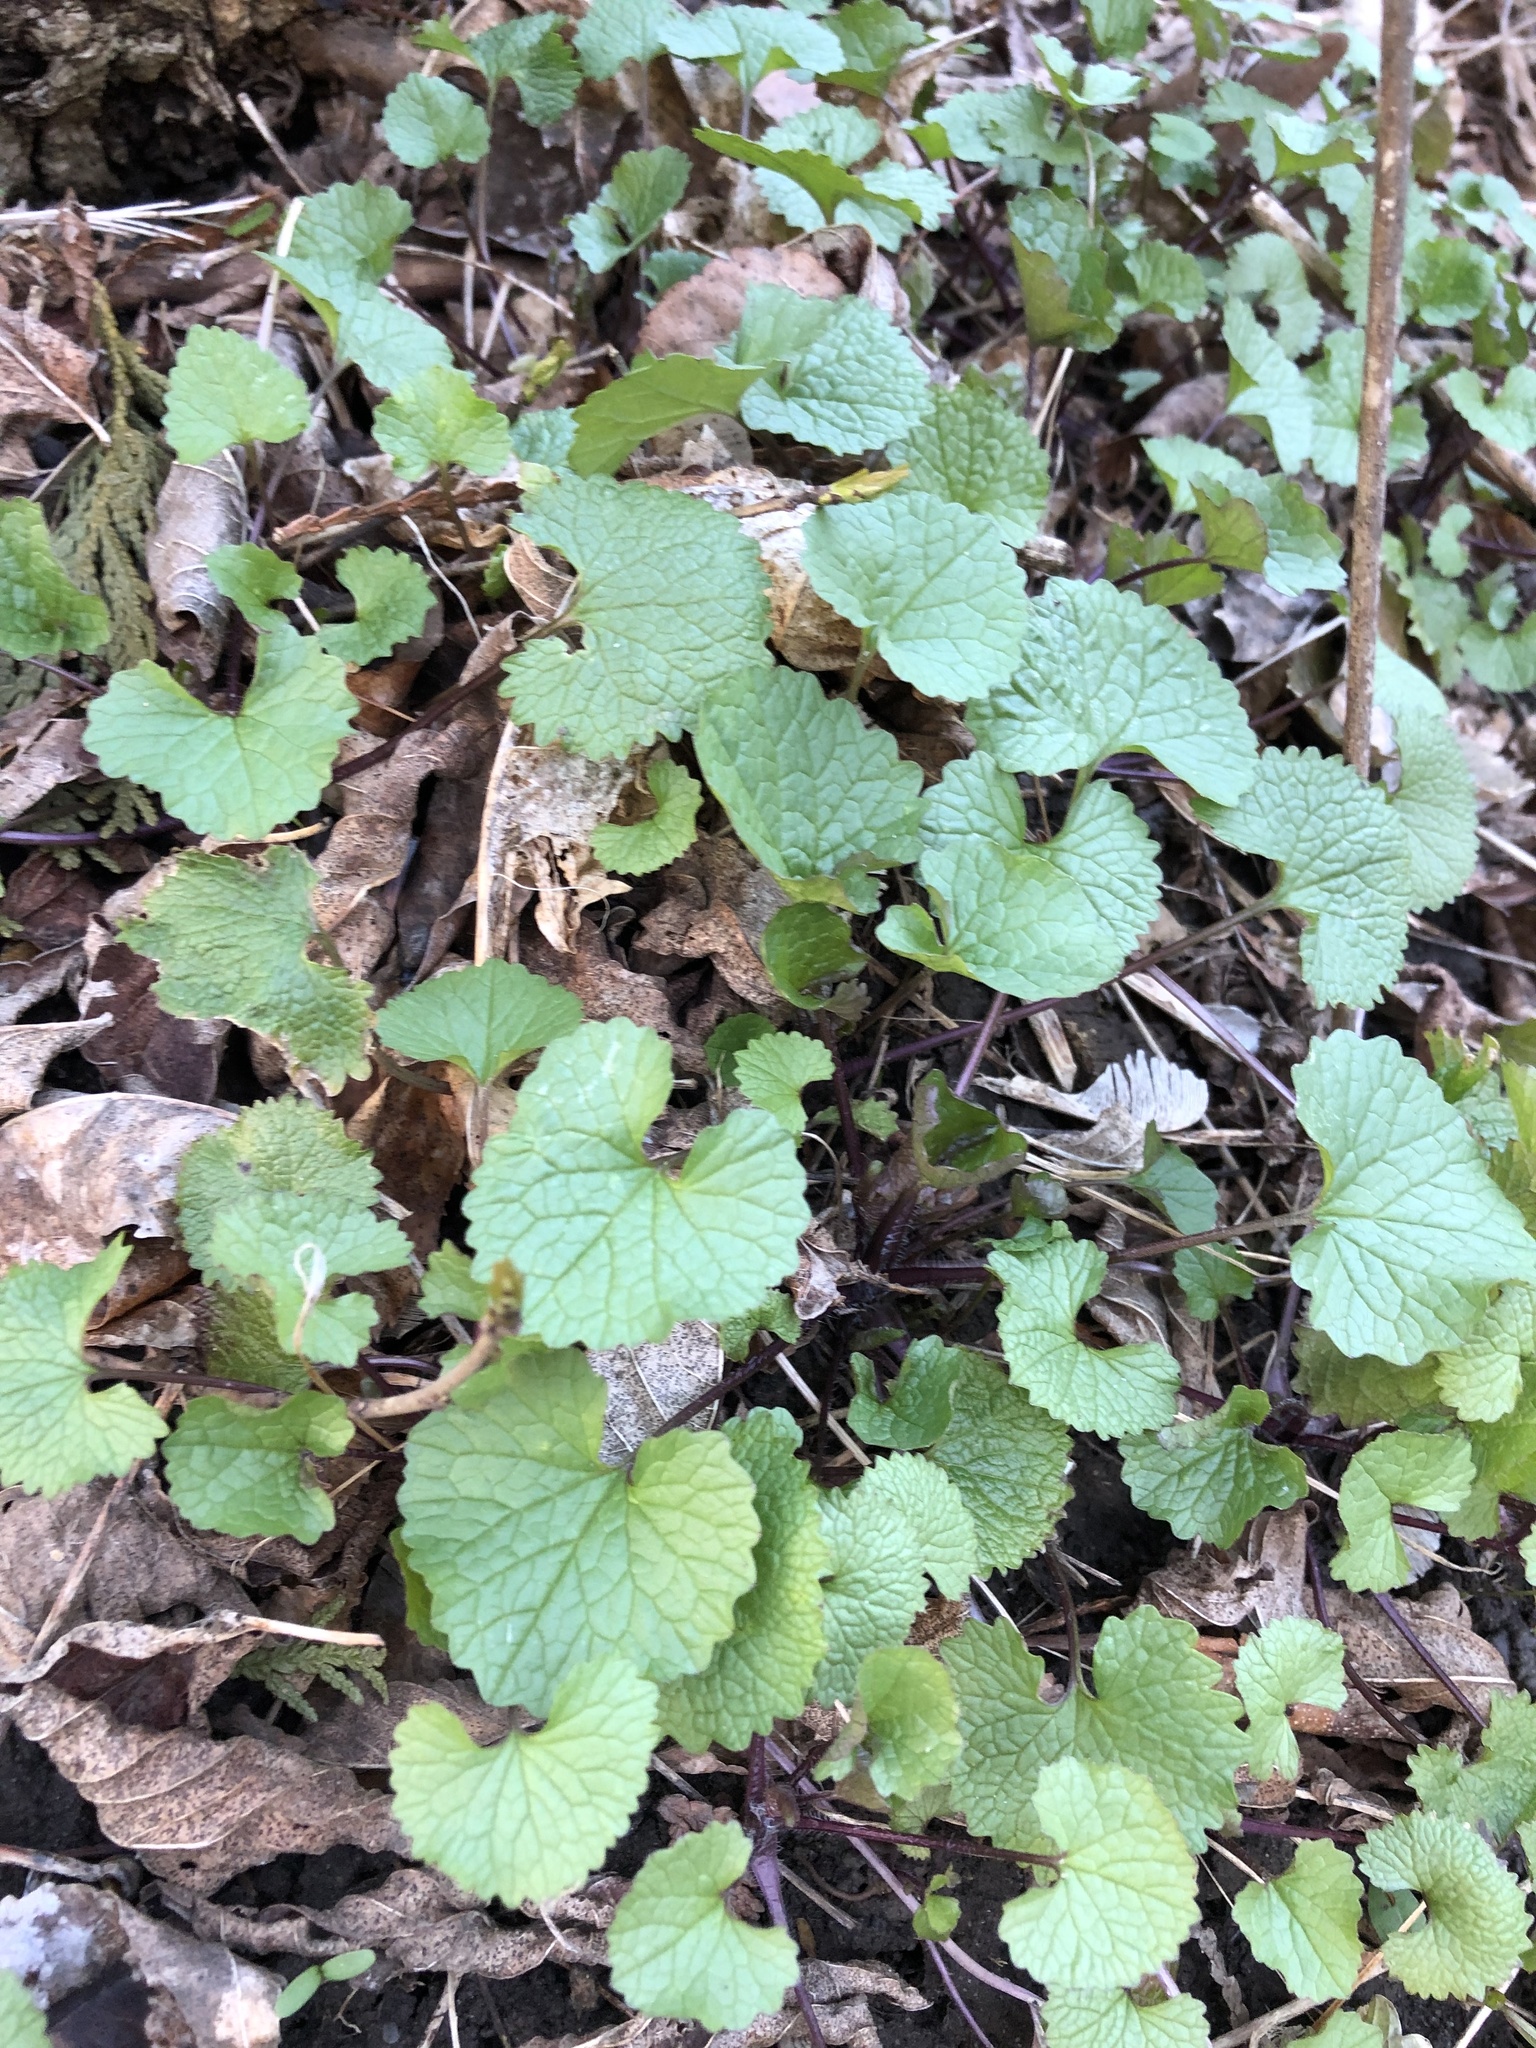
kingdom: Plantae
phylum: Tracheophyta
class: Magnoliopsida
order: Brassicales
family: Brassicaceae
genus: Alliaria
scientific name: Alliaria petiolata
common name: Garlic mustard
